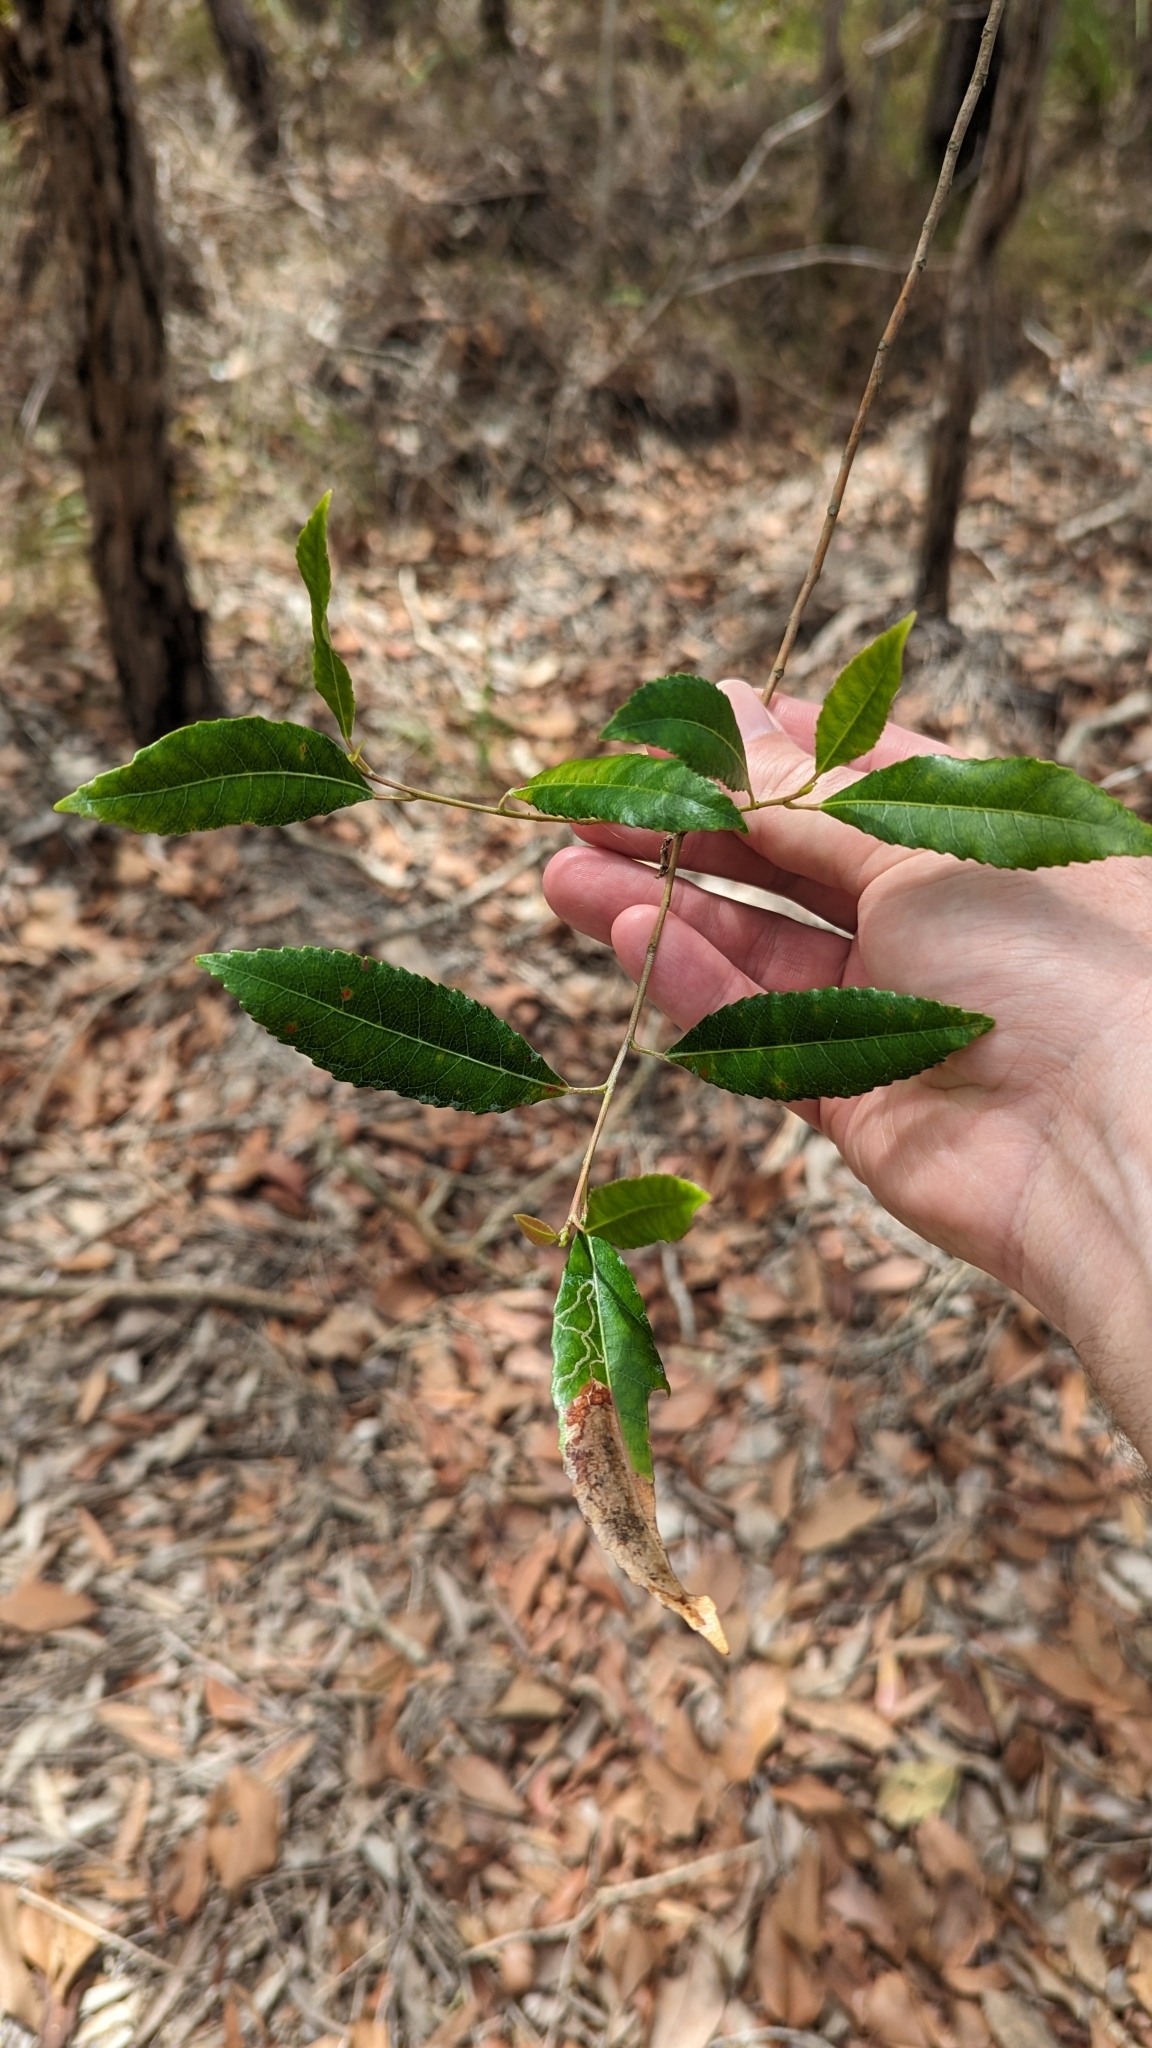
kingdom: Plantae
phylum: Tracheophyta
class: Magnoliopsida
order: Oxalidales
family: Elaeocarpaceae
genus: Elaeocarpus
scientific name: Elaeocarpus reticulatus
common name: Ash quandong
